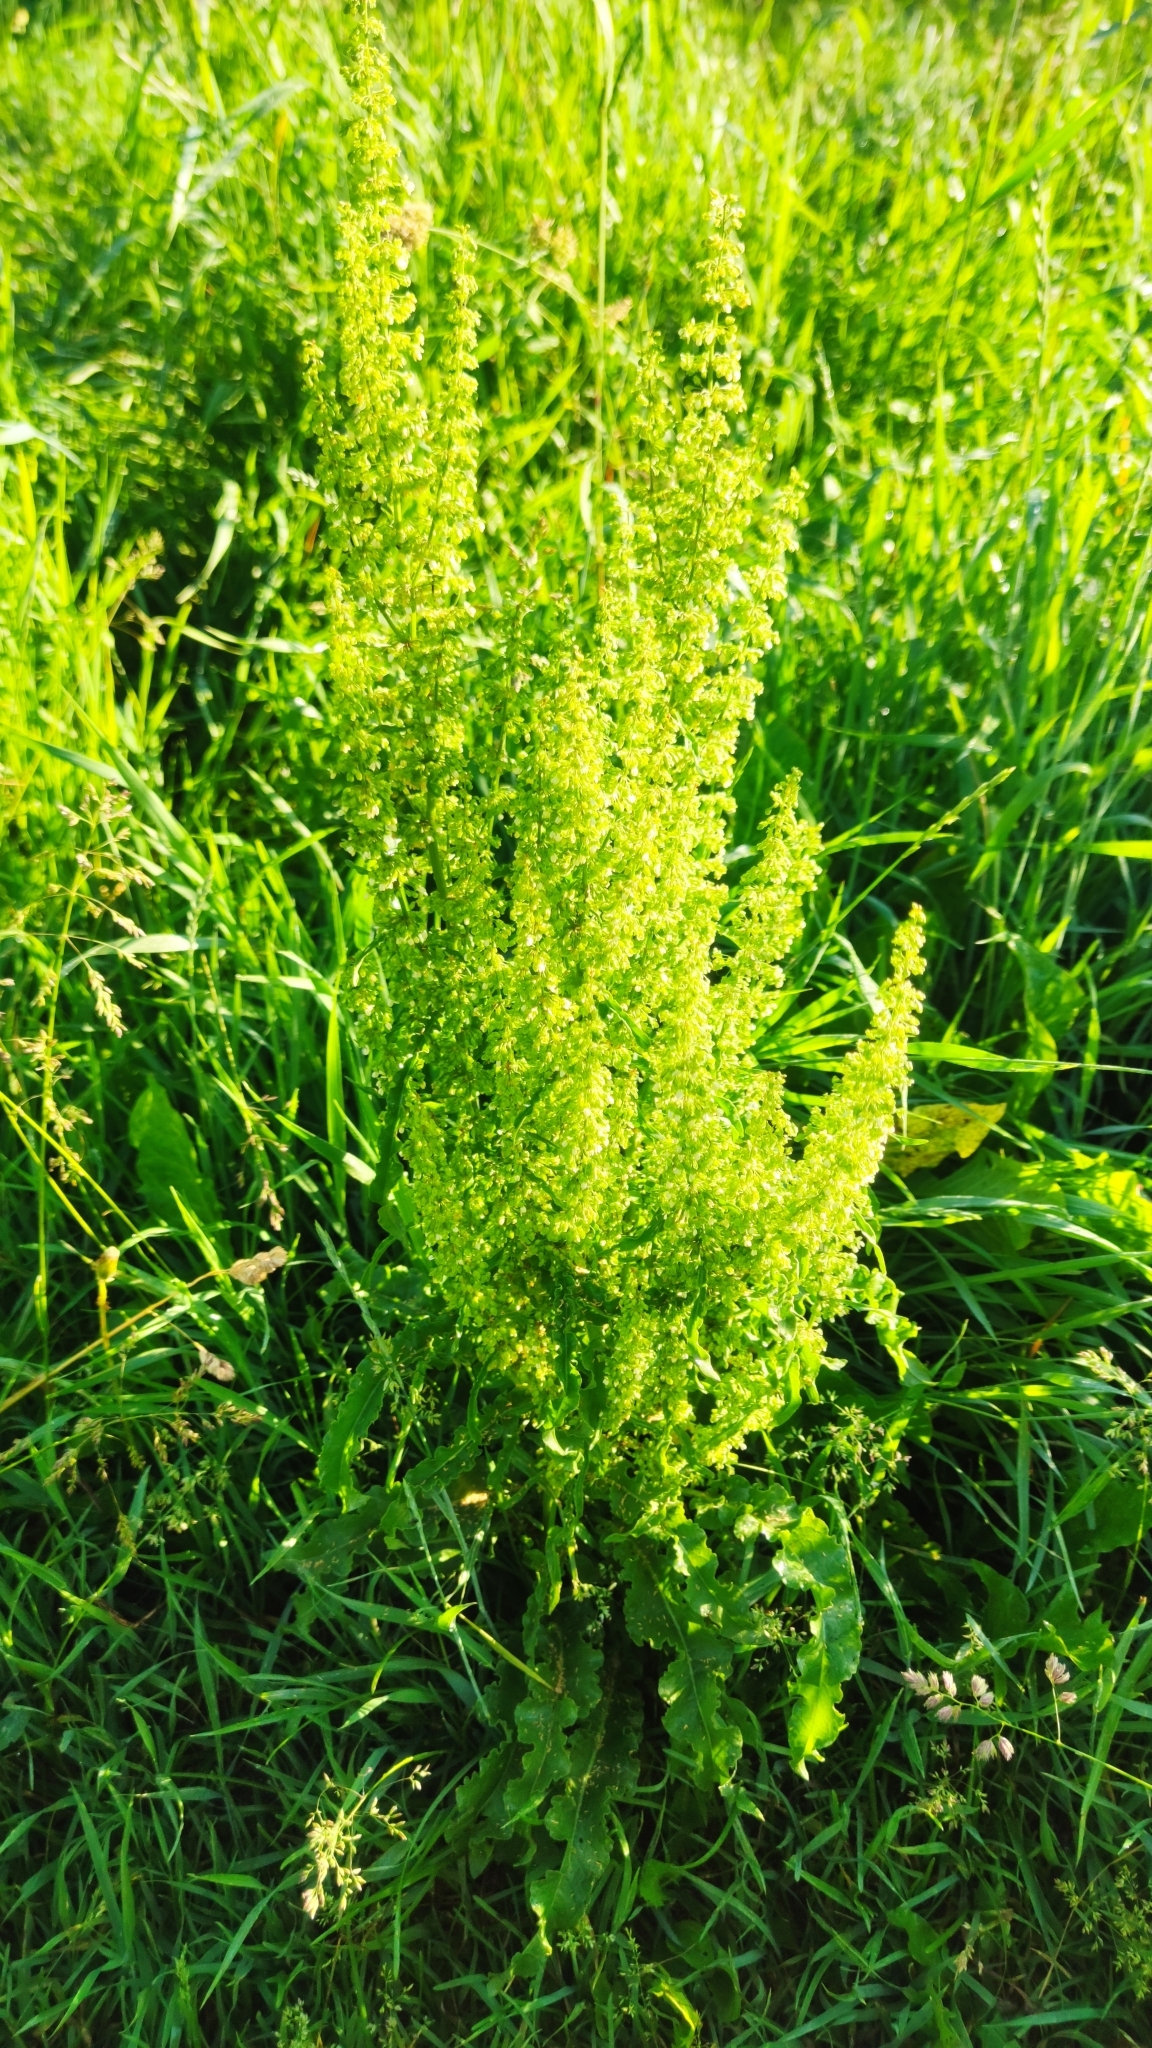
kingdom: Plantae
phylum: Tracheophyta
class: Magnoliopsida
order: Caryophyllales
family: Polygonaceae
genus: Rumex
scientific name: Rumex longifolius
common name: Dooryard dock
